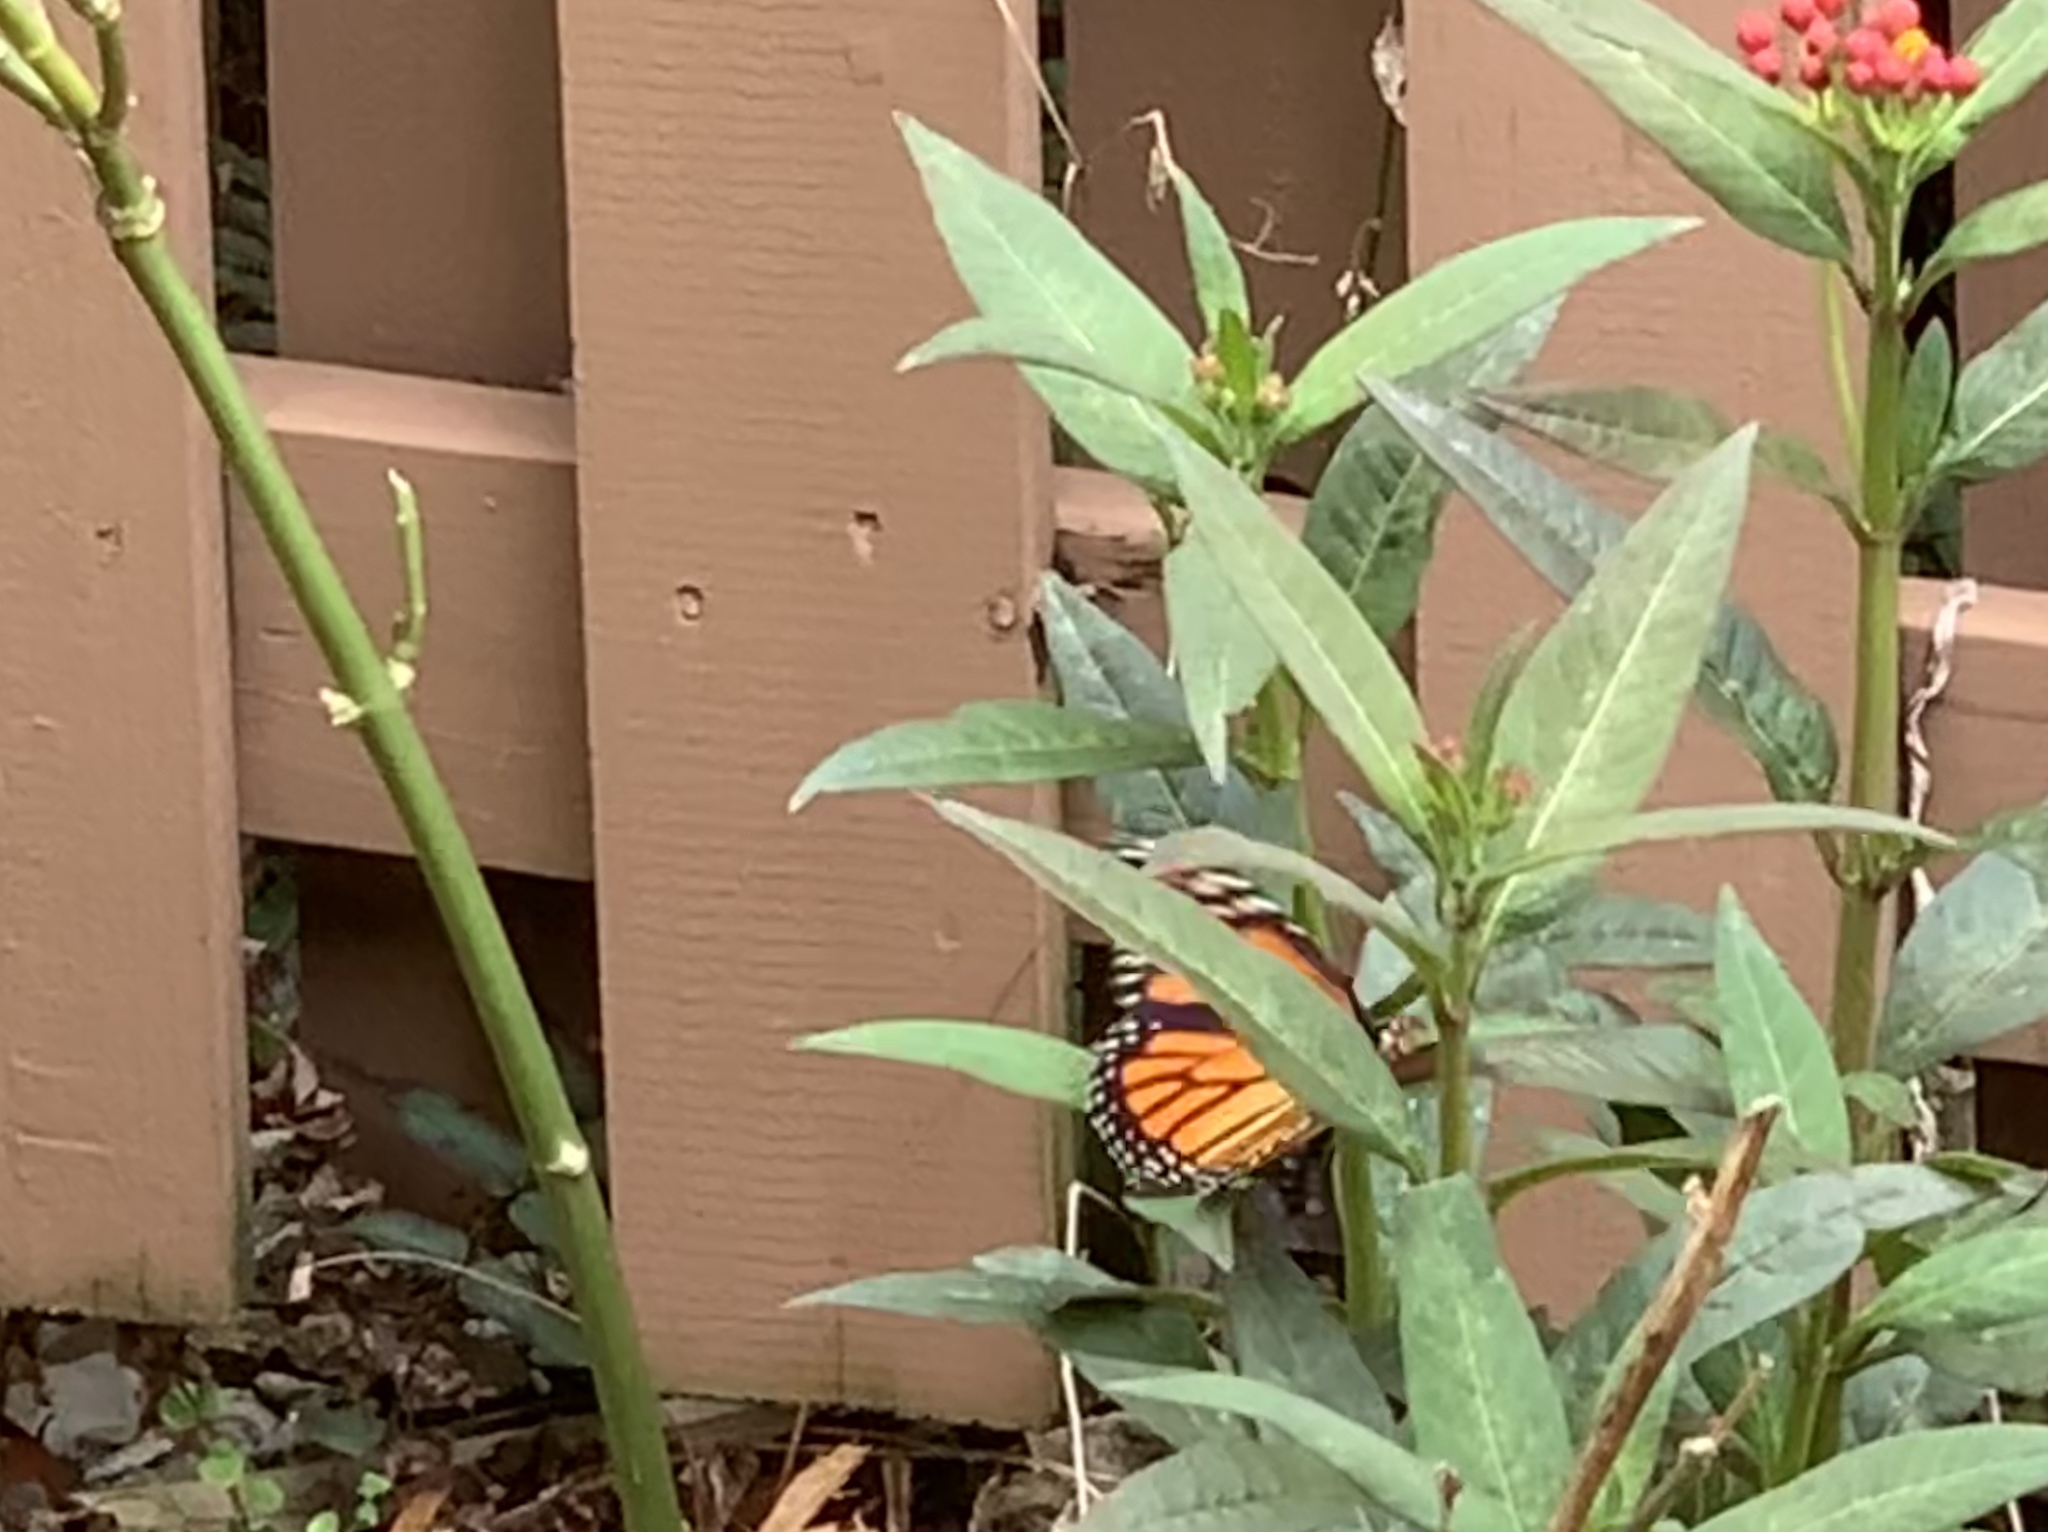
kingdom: Animalia
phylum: Arthropoda
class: Insecta
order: Lepidoptera
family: Nymphalidae
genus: Danaus
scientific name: Danaus plexippus
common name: Monarch
